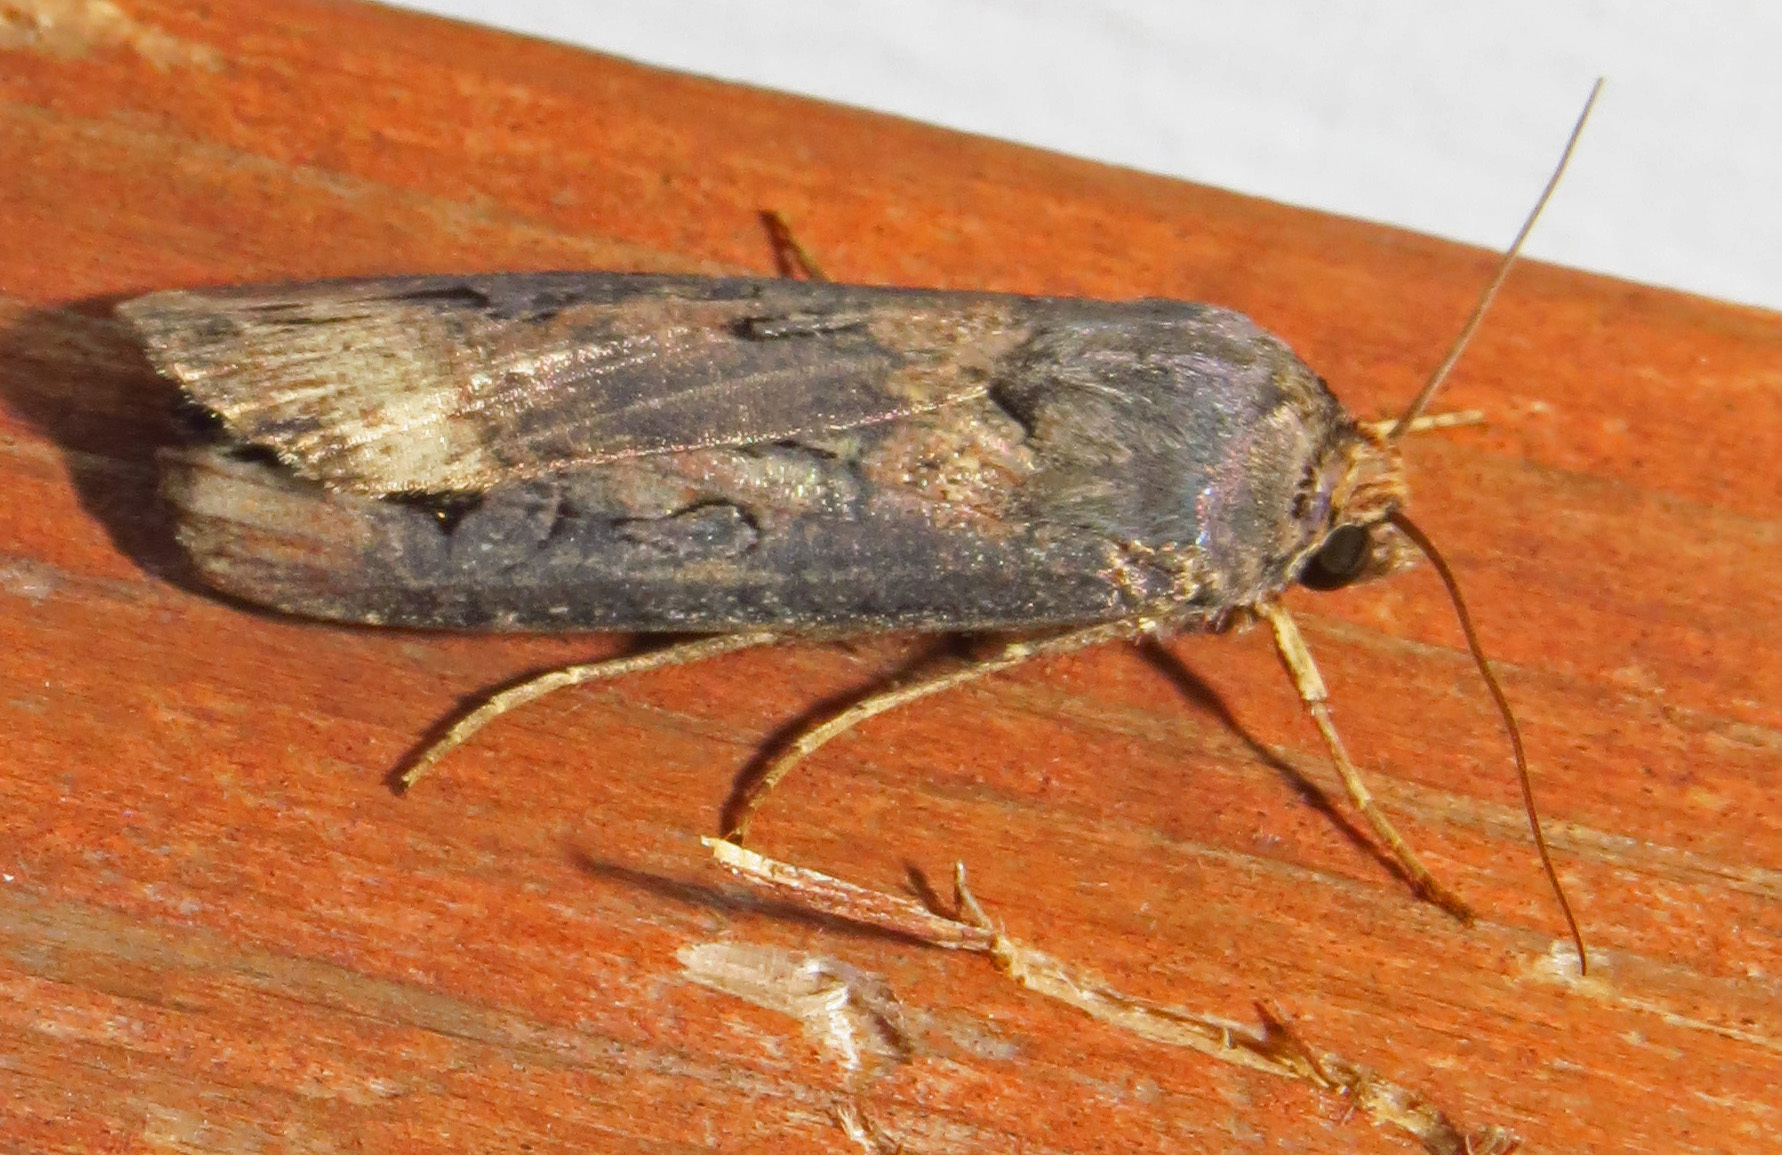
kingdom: Animalia
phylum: Arthropoda
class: Insecta
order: Lepidoptera
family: Noctuidae
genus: Agrotis
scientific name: Agrotis ipsilon
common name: Dark sword-grass
